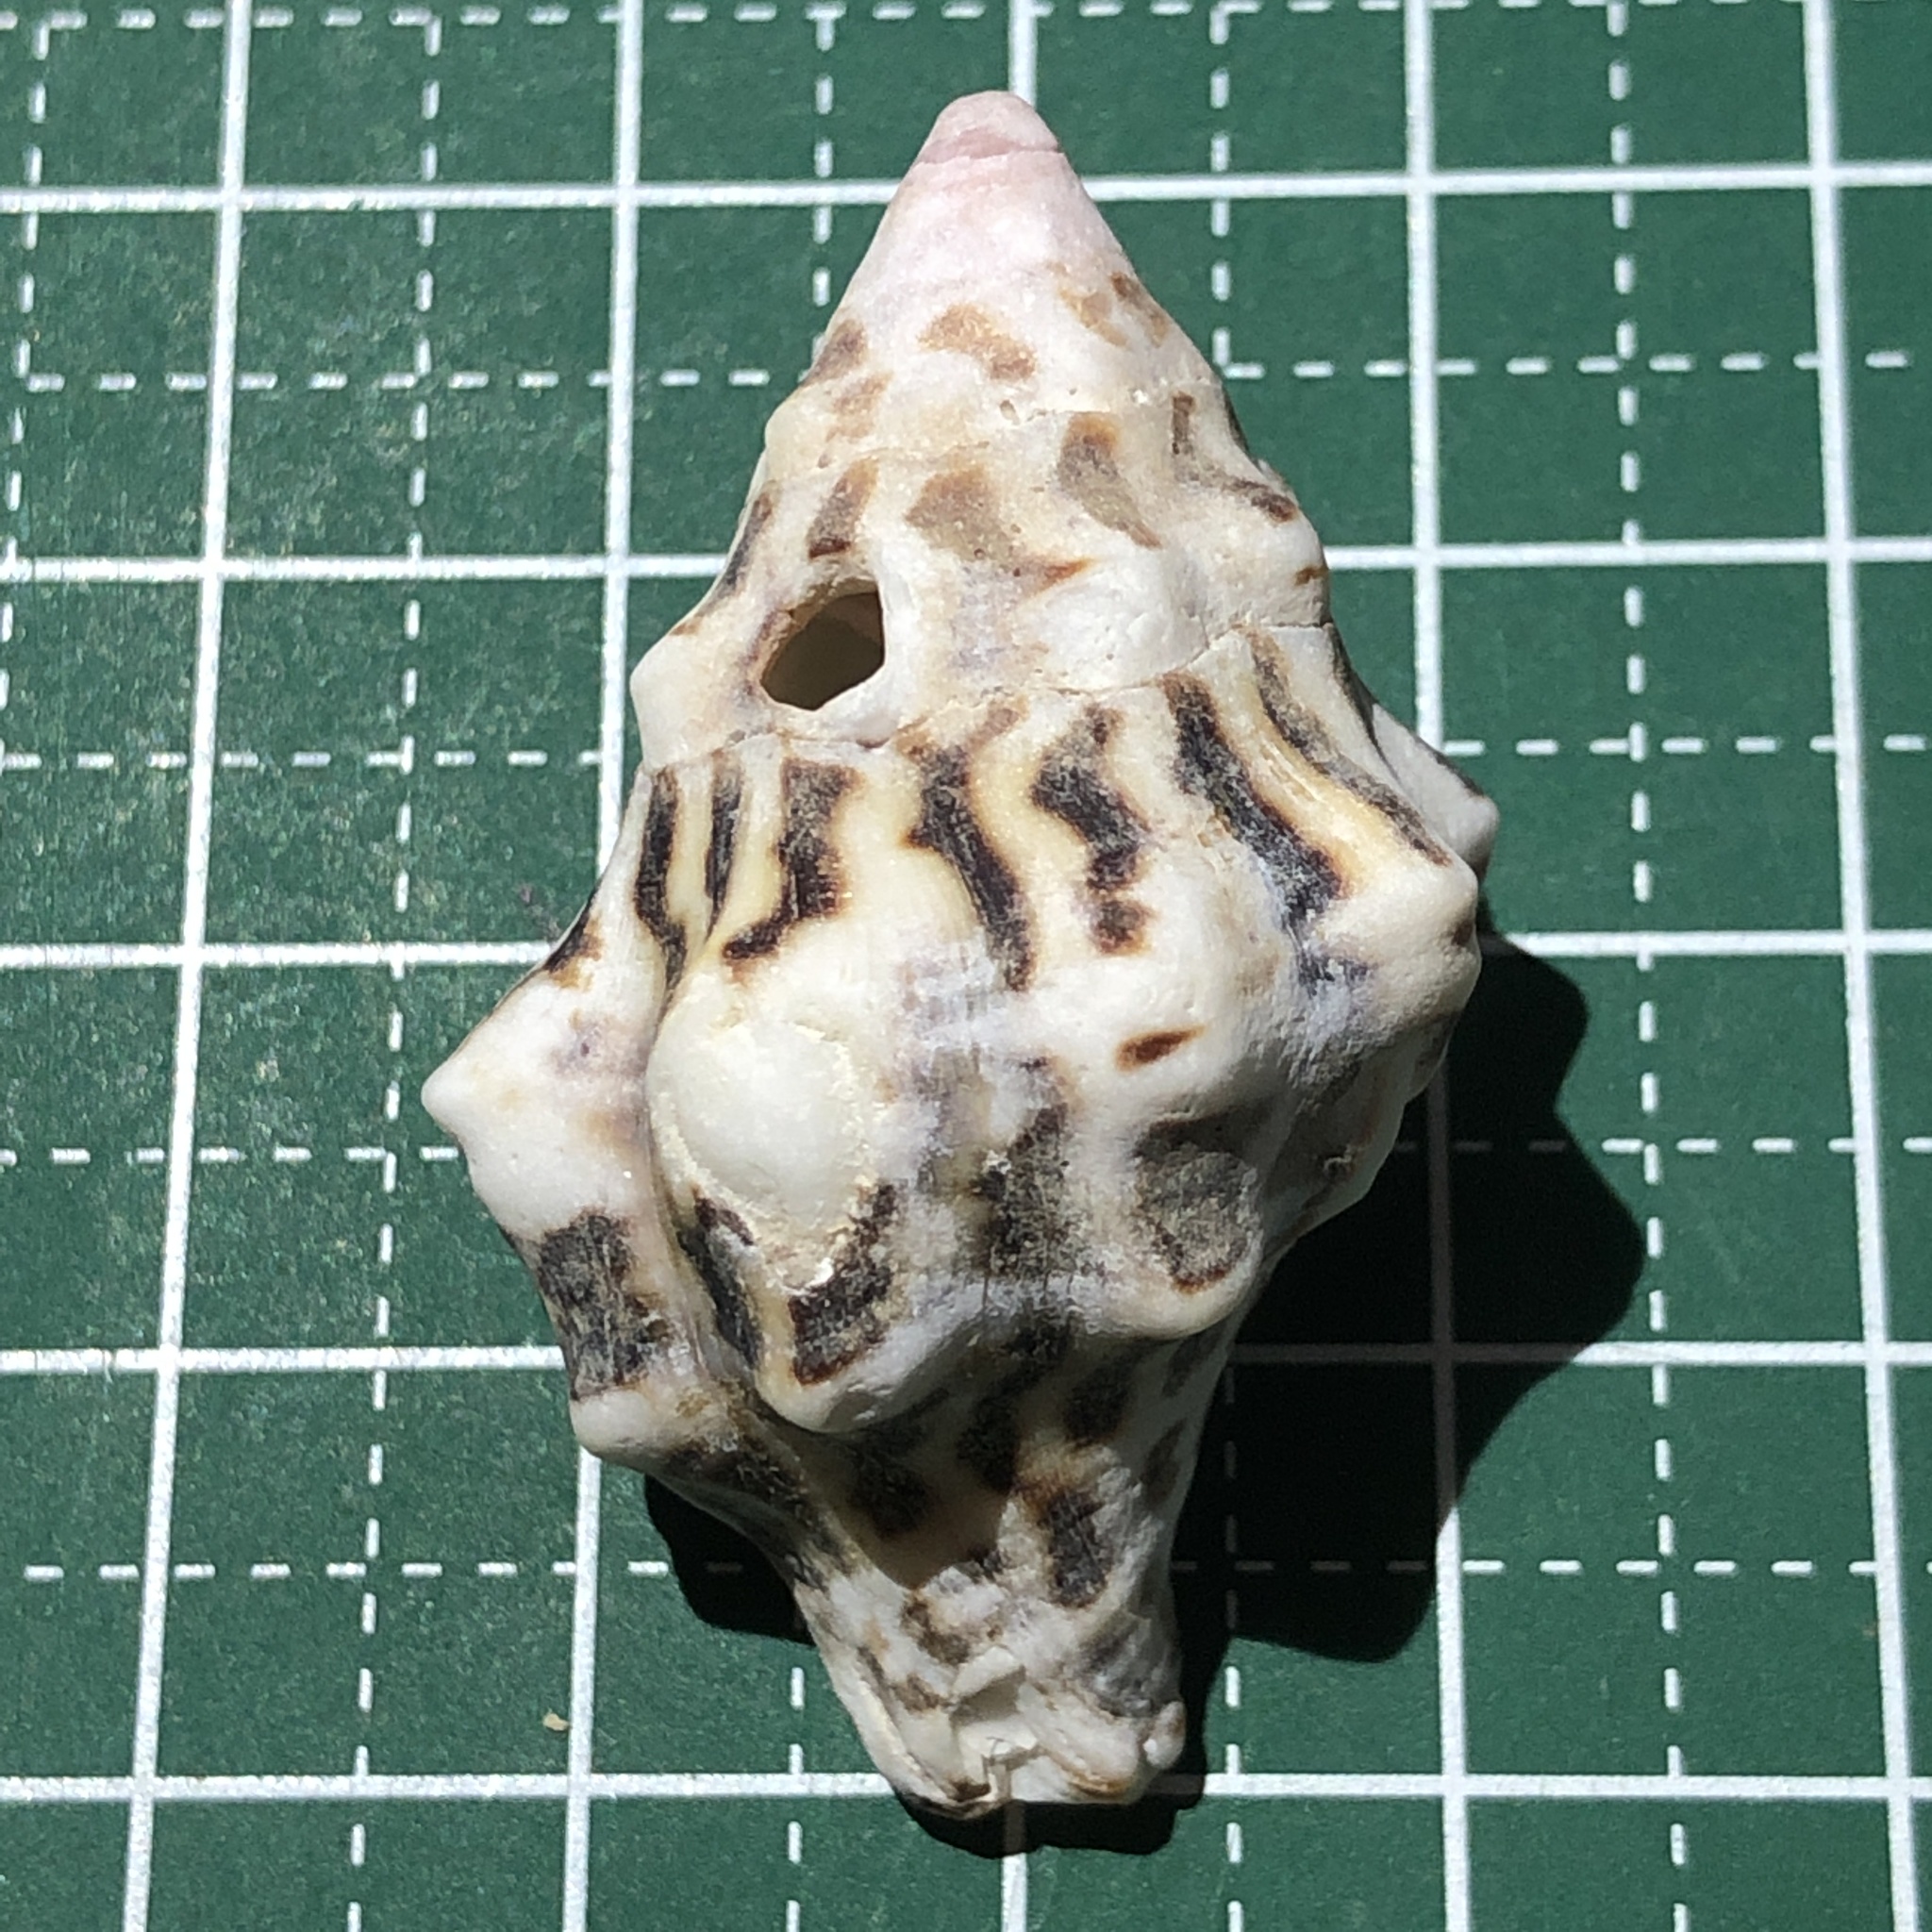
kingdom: Animalia
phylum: Mollusca
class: Gastropoda
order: Neogastropoda
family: Fasciolariidae
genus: Latirus
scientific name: Latirus belcheri
